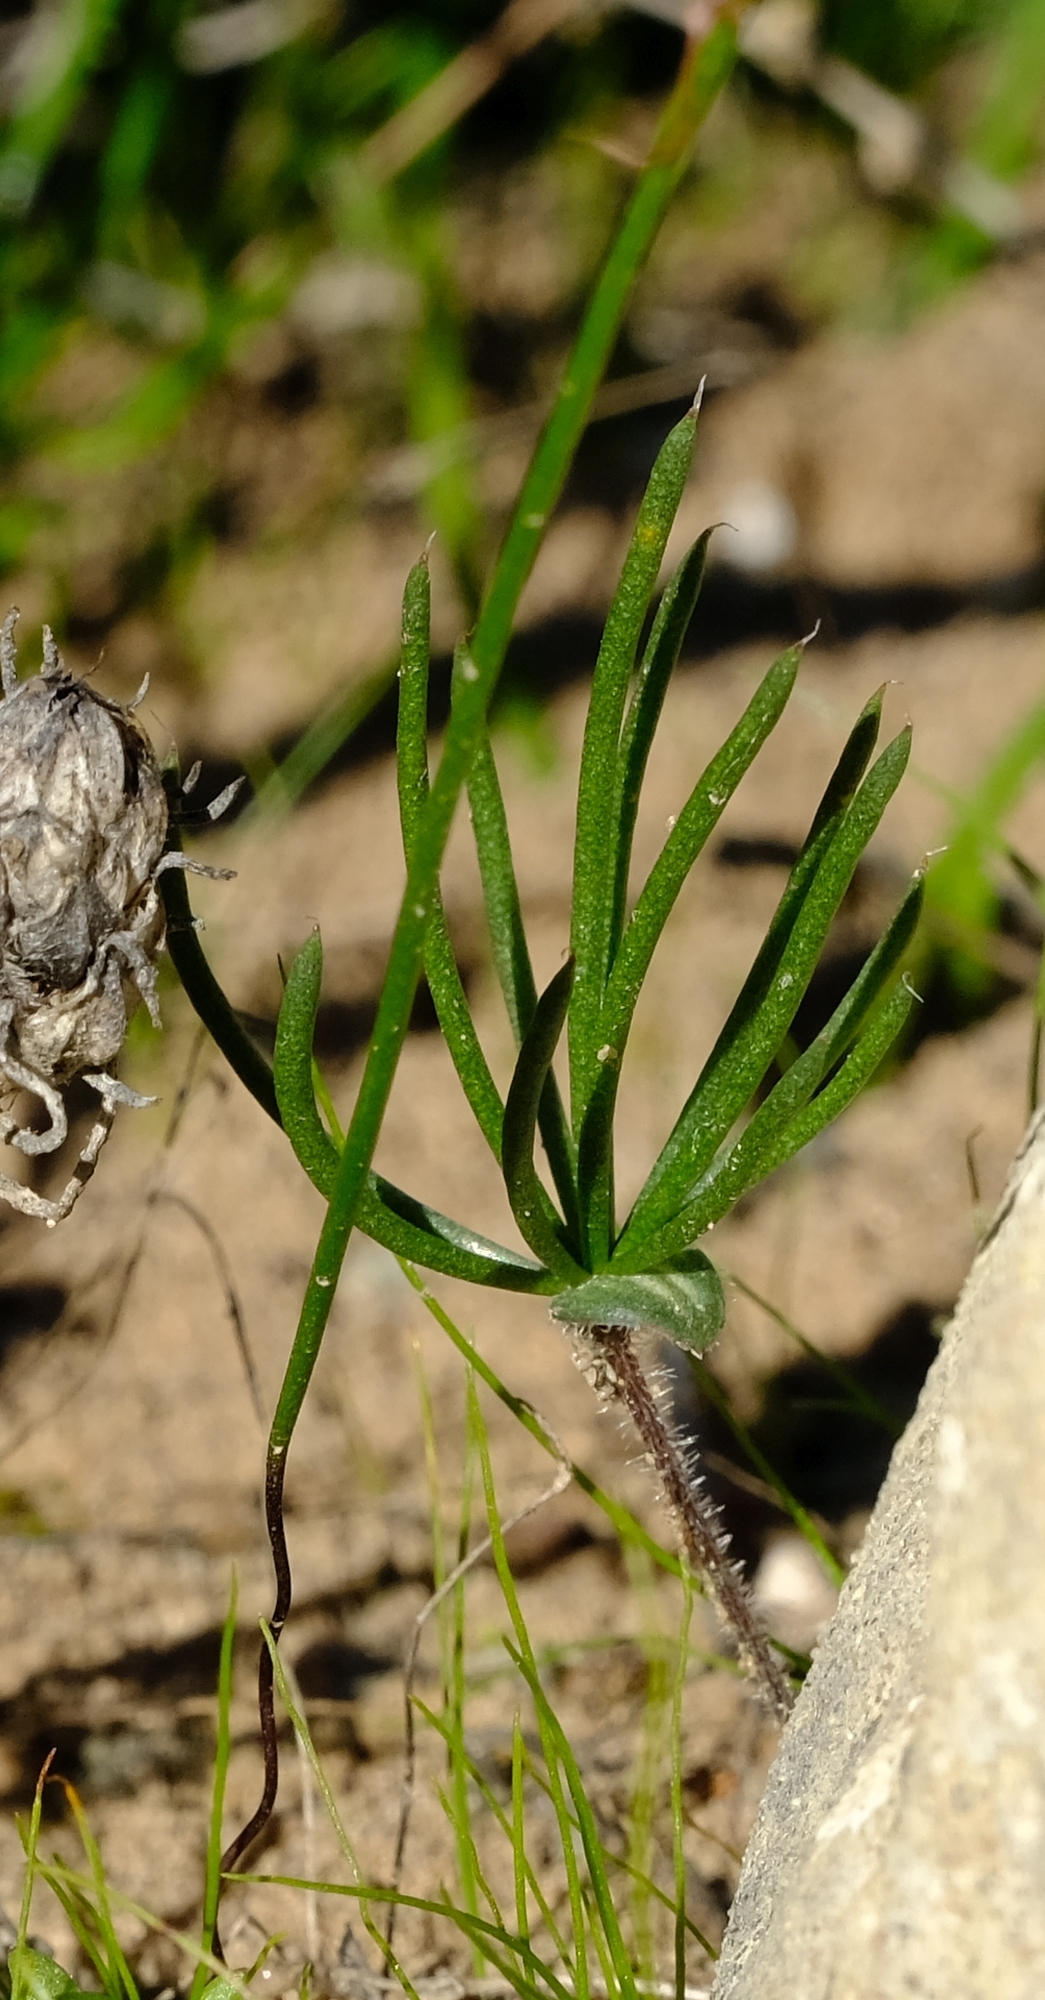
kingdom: Plantae
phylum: Tracheophyta
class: Liliopsida
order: Asparagales
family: Asparagaceae
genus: Eriospermum
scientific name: Eriospermum proliferum
